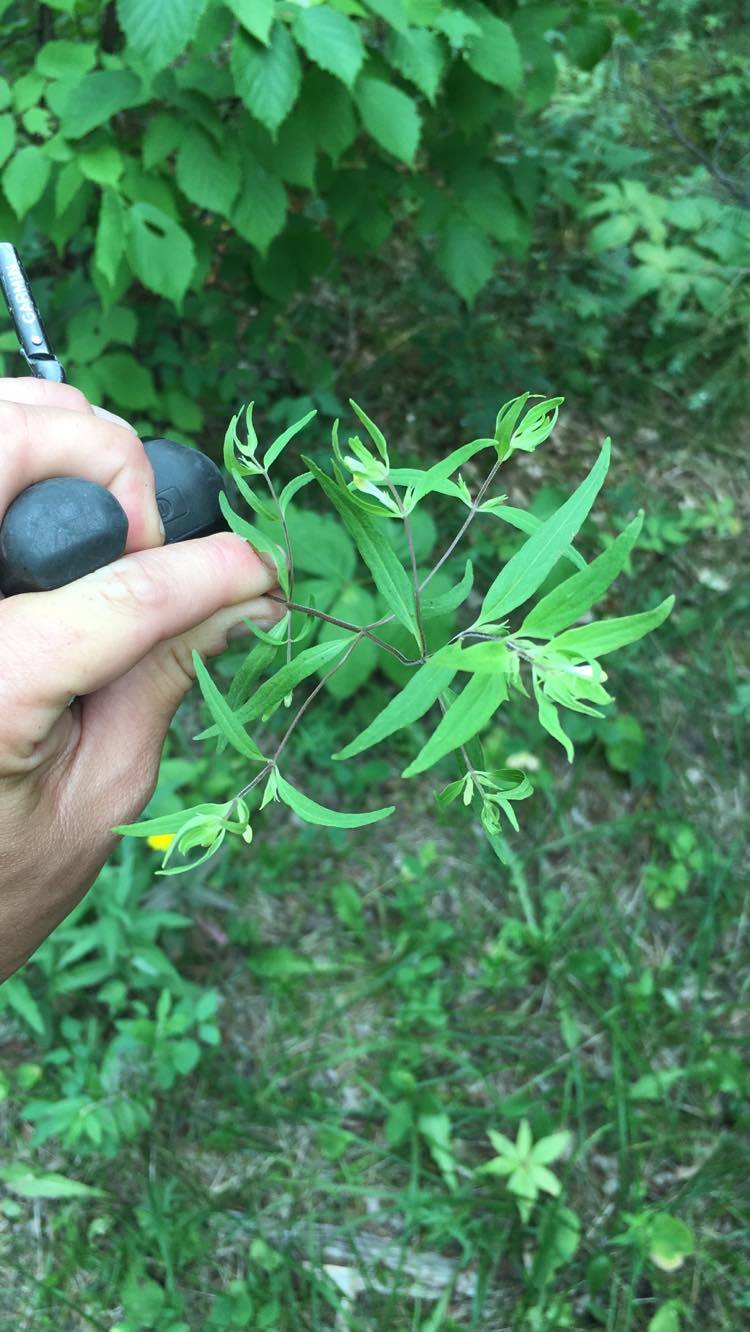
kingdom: Plantae
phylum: Tracheophyta
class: Magnoliopsida
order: Lamiales
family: Orobanchaceae
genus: Melampyrum
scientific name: Melampyrum lineare
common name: American cow-wheat
